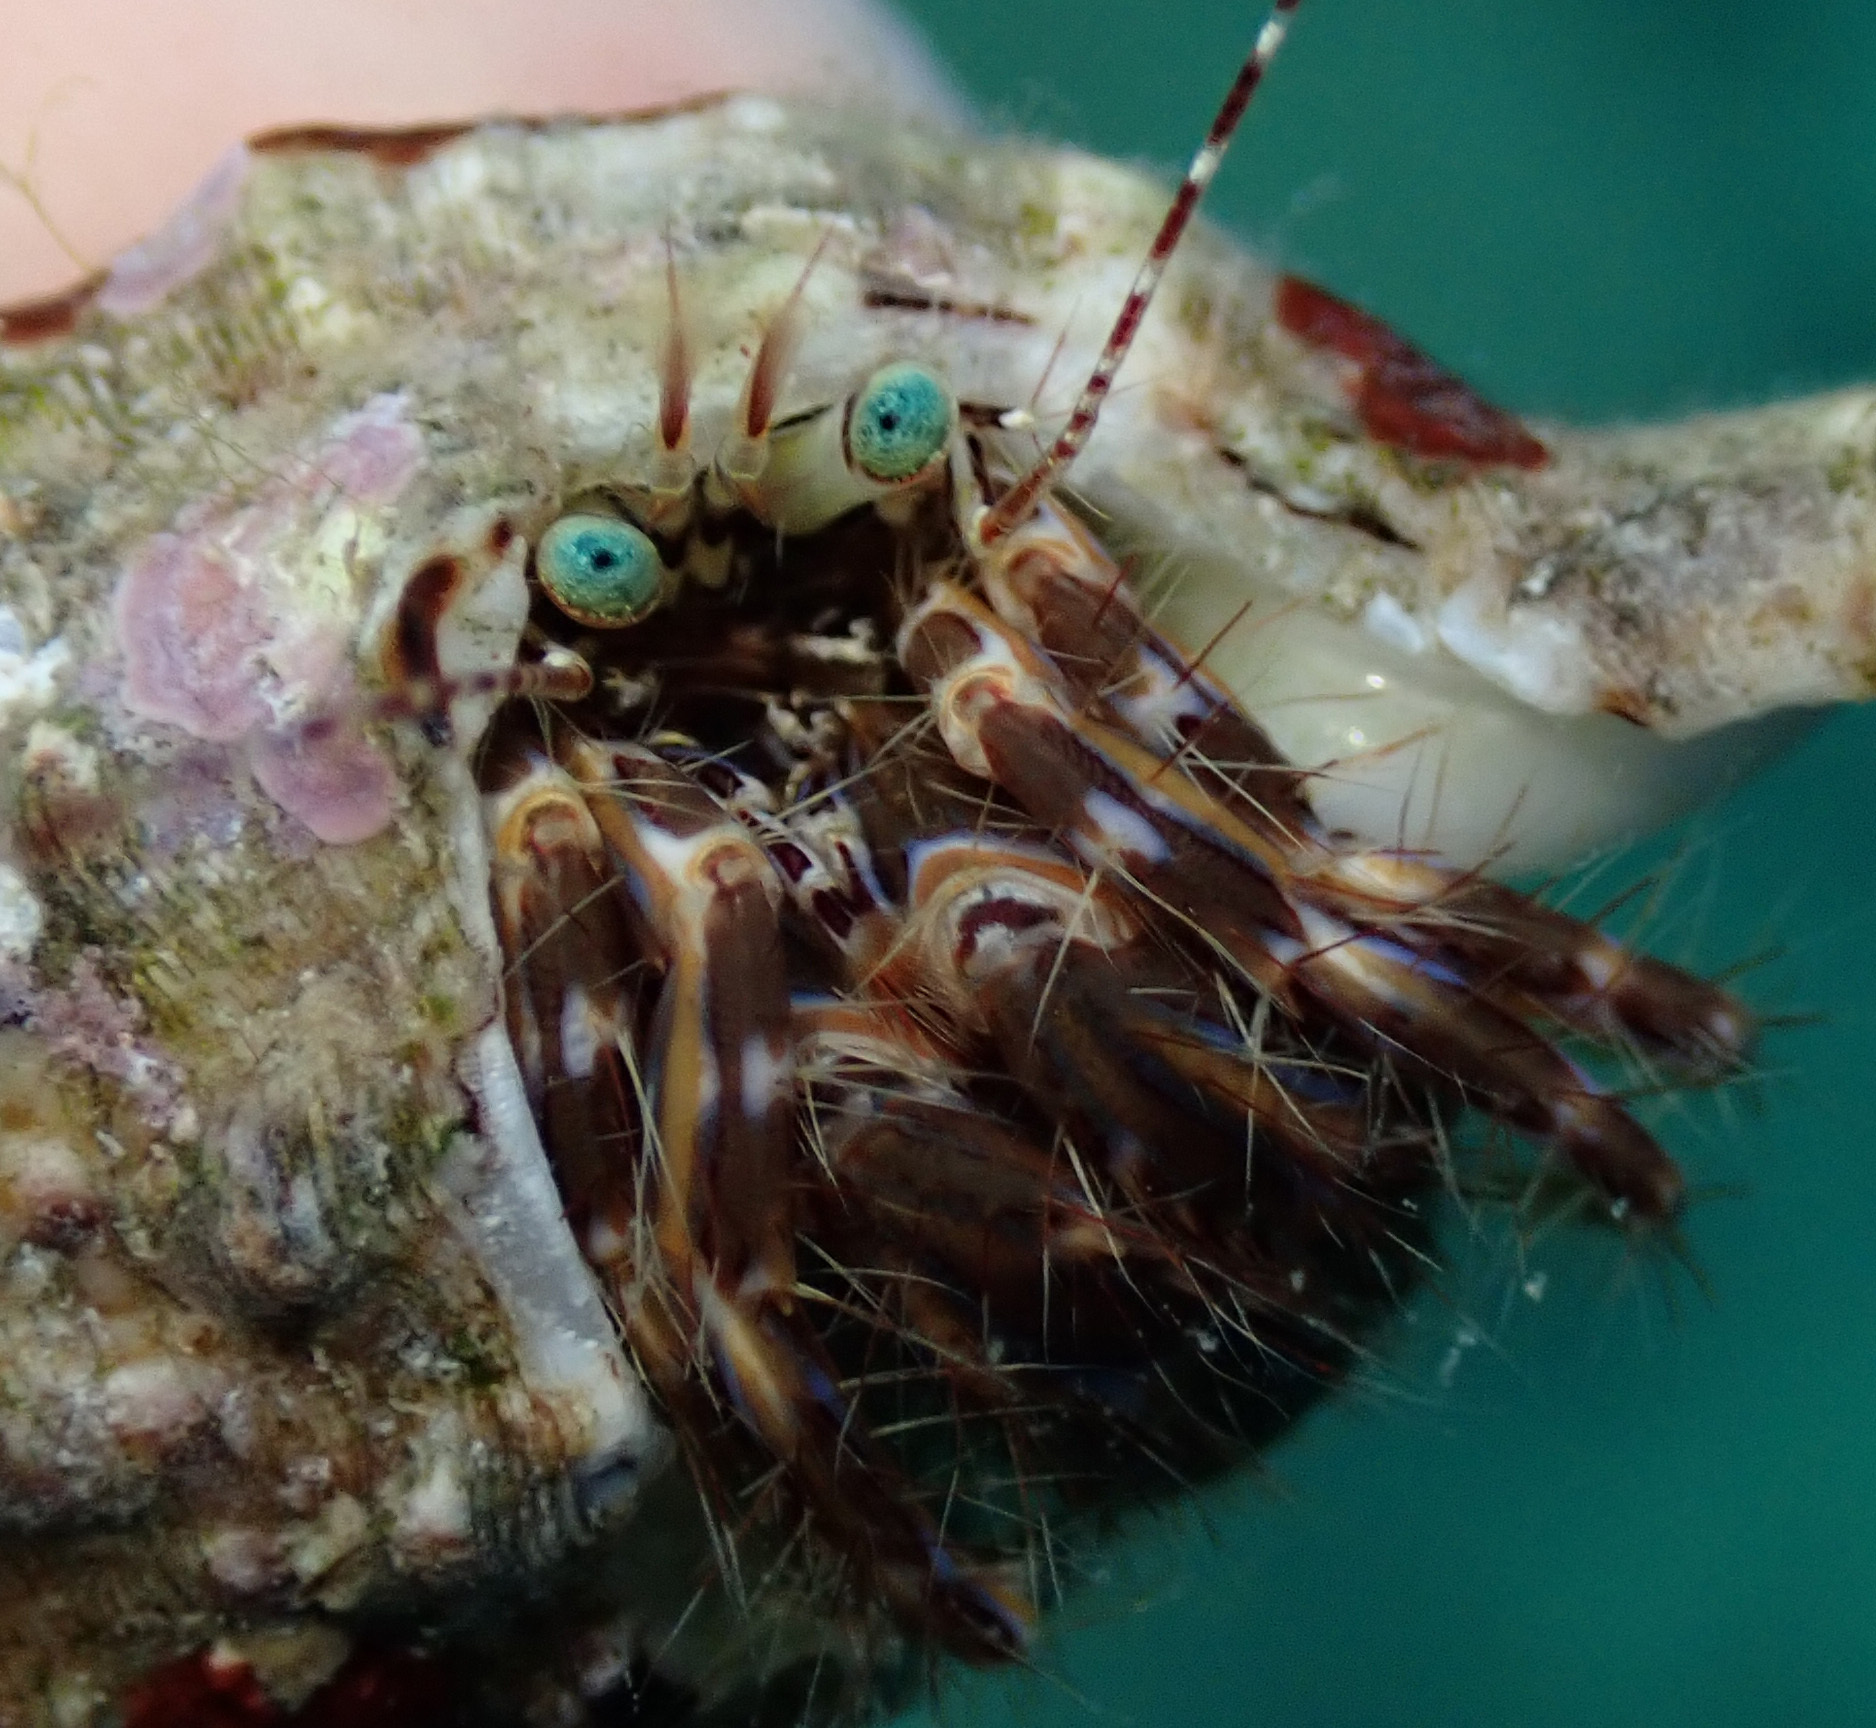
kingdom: Animalia
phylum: Arthropoda
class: Malacostraca
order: Decapoda
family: Paguridae
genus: Pagurus
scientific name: Pagurus anachoretus
